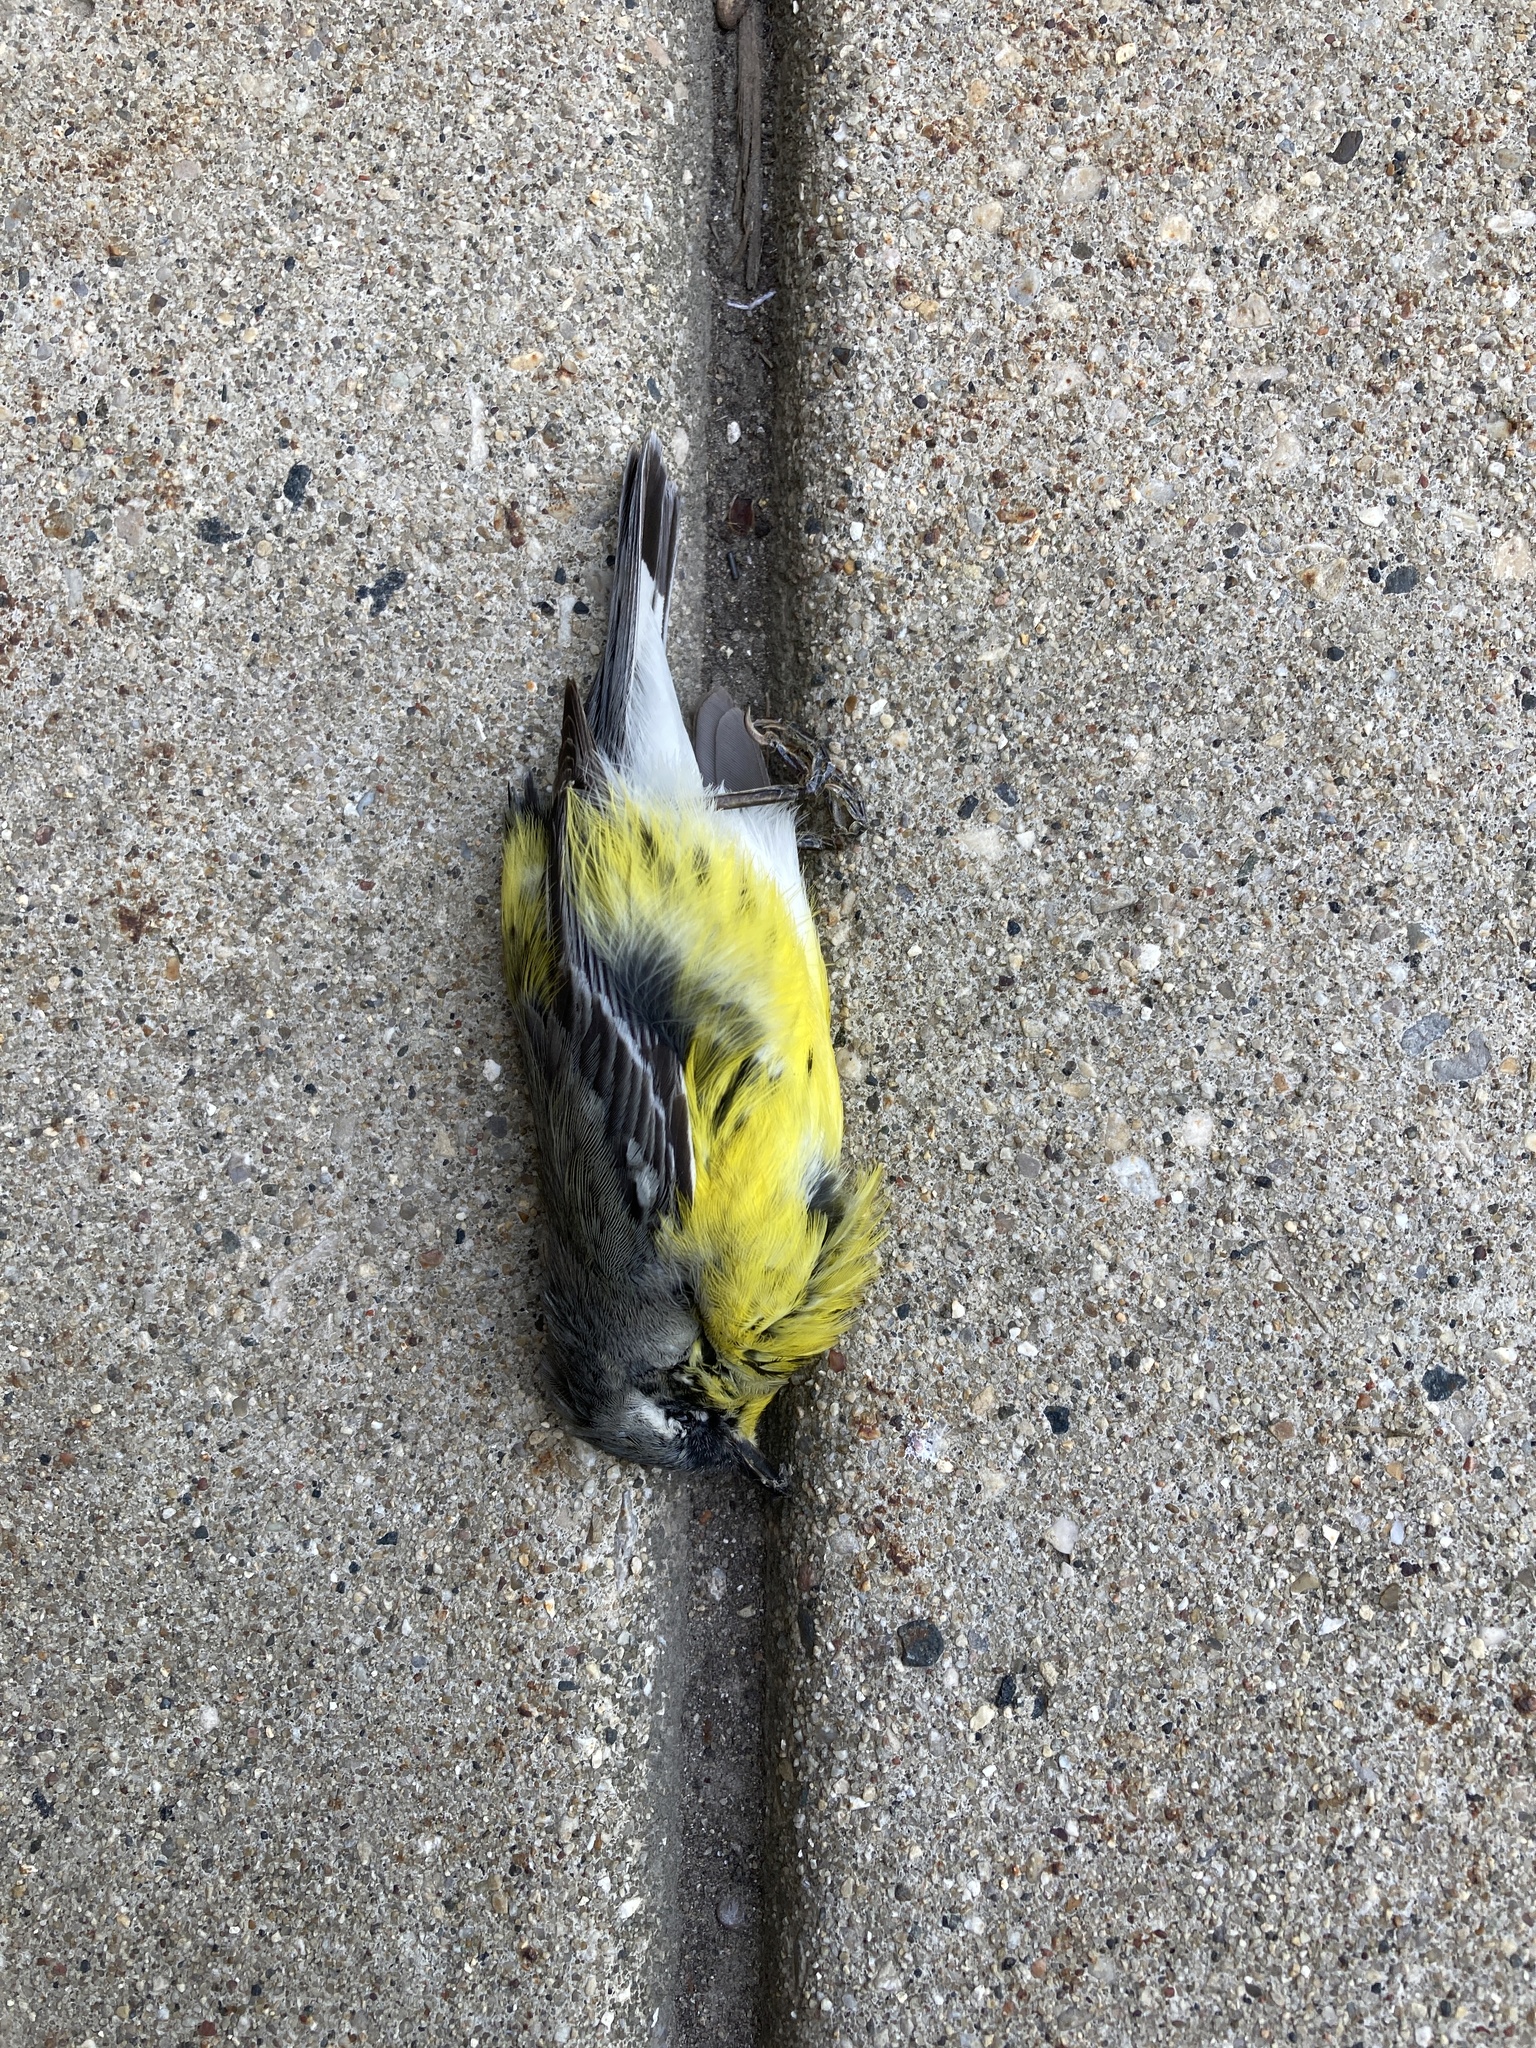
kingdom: Animalia
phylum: Chordata
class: Aves
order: Passeriformes
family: Parulidae
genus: Setophaga
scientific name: Setophaga magnolia
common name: Magnolia warbler
